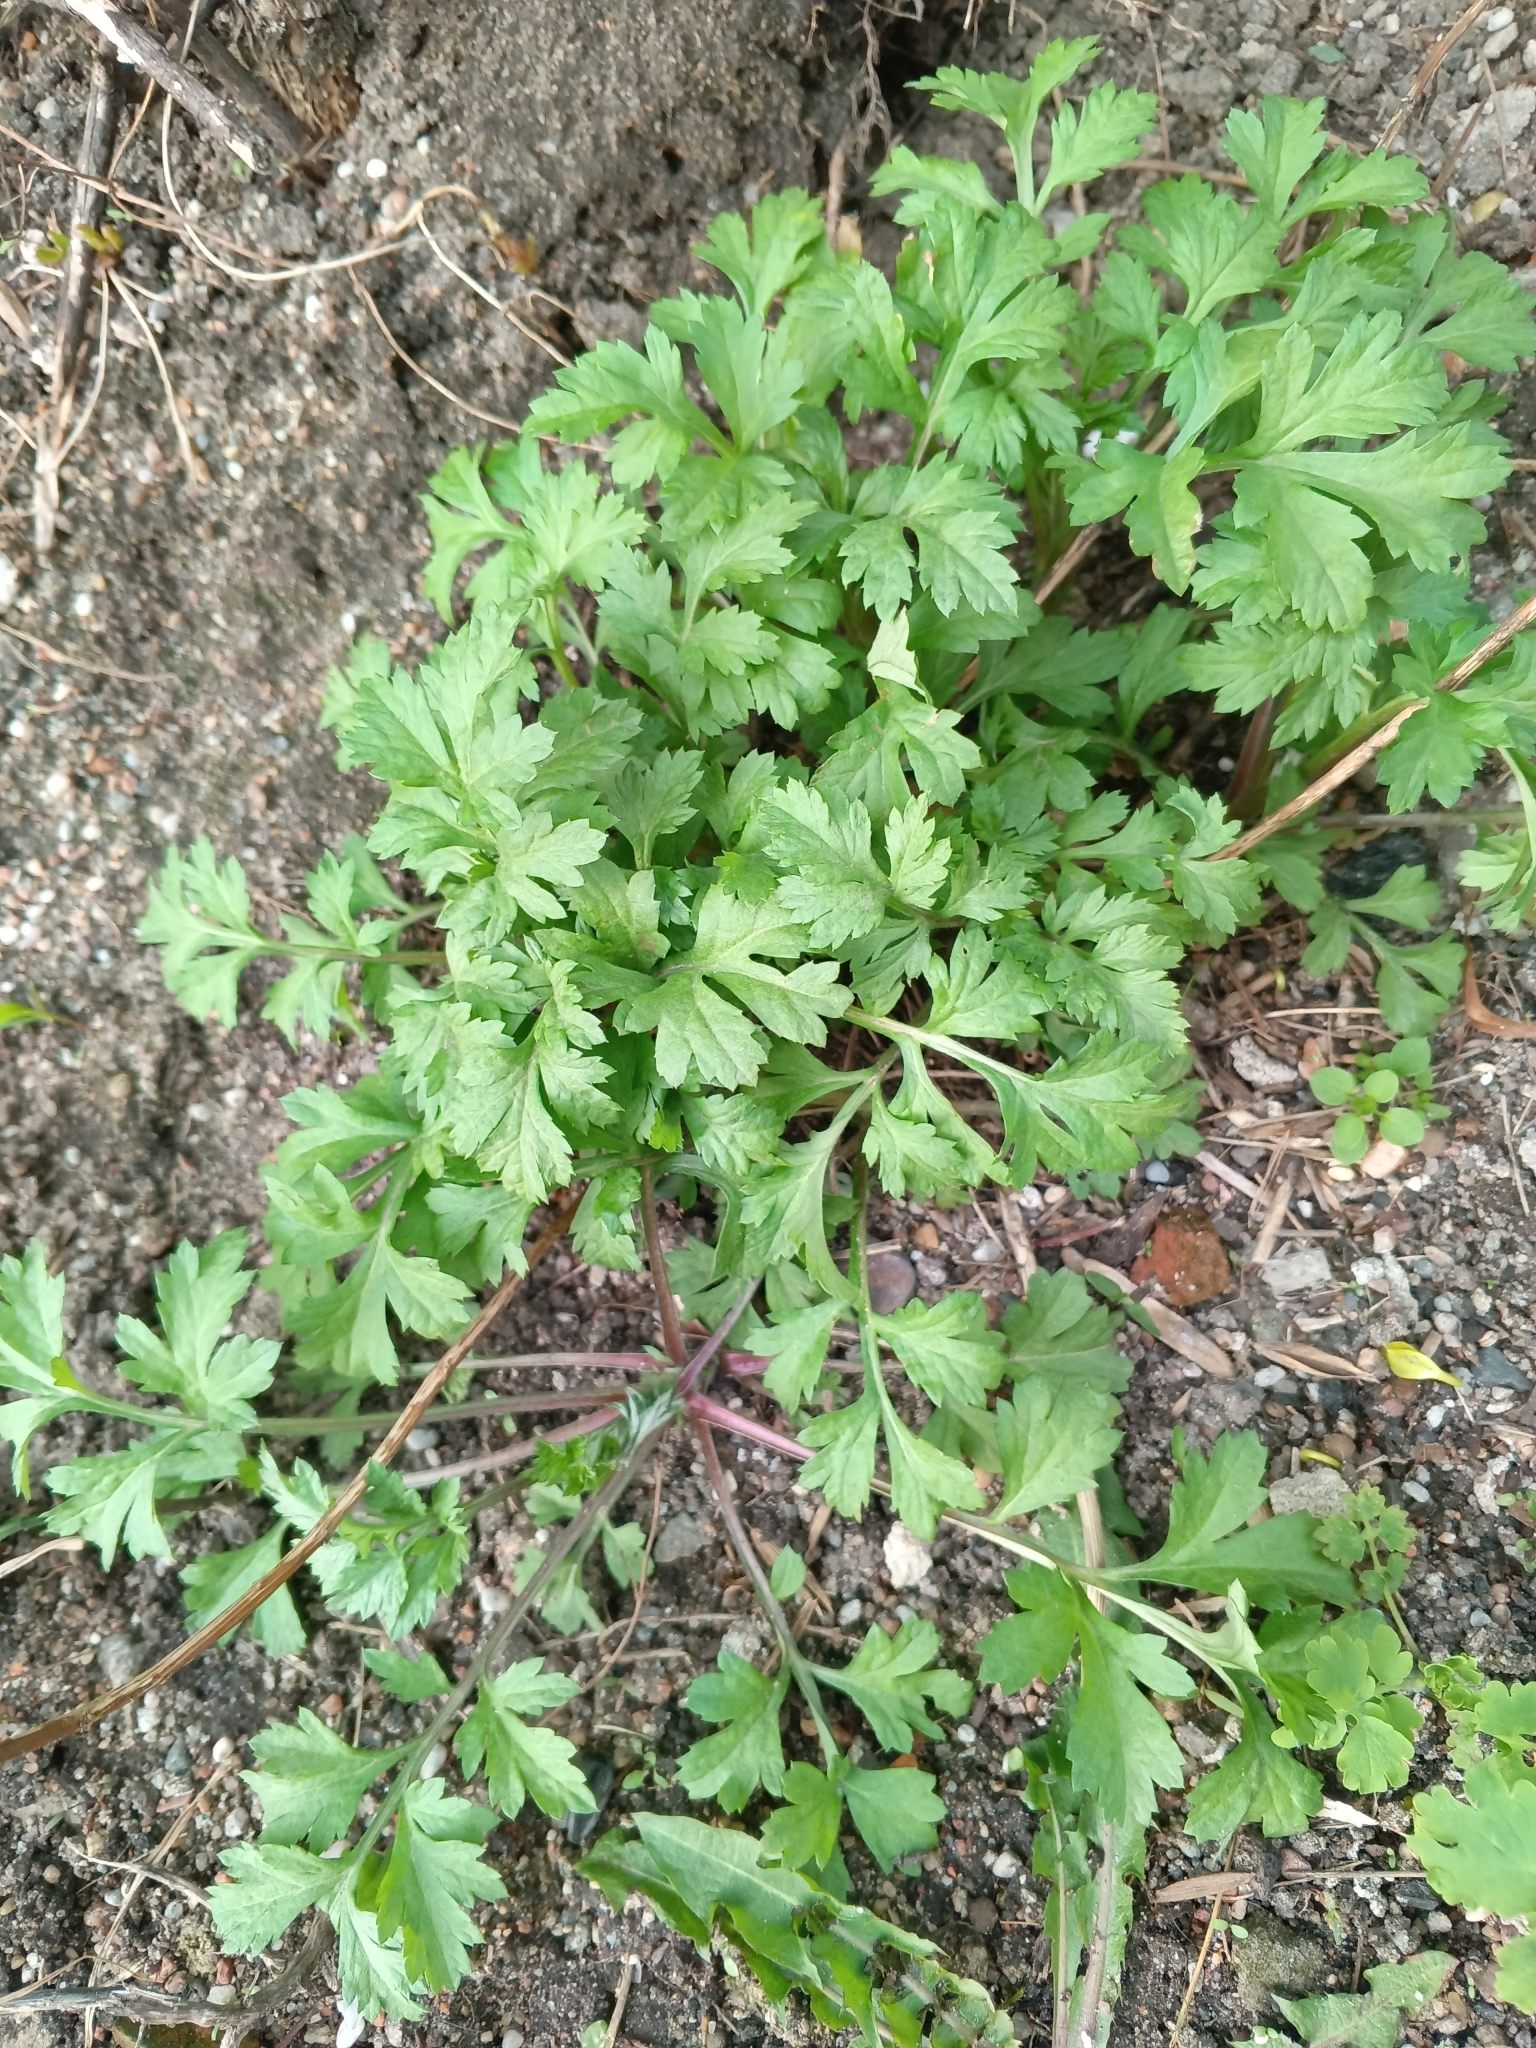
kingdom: Plantae
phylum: Tracheophyta
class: Magnoliopsida
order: Asterales
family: Asteraceae
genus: Artemisia
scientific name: Artemisia vulgaris
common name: Mugwort
